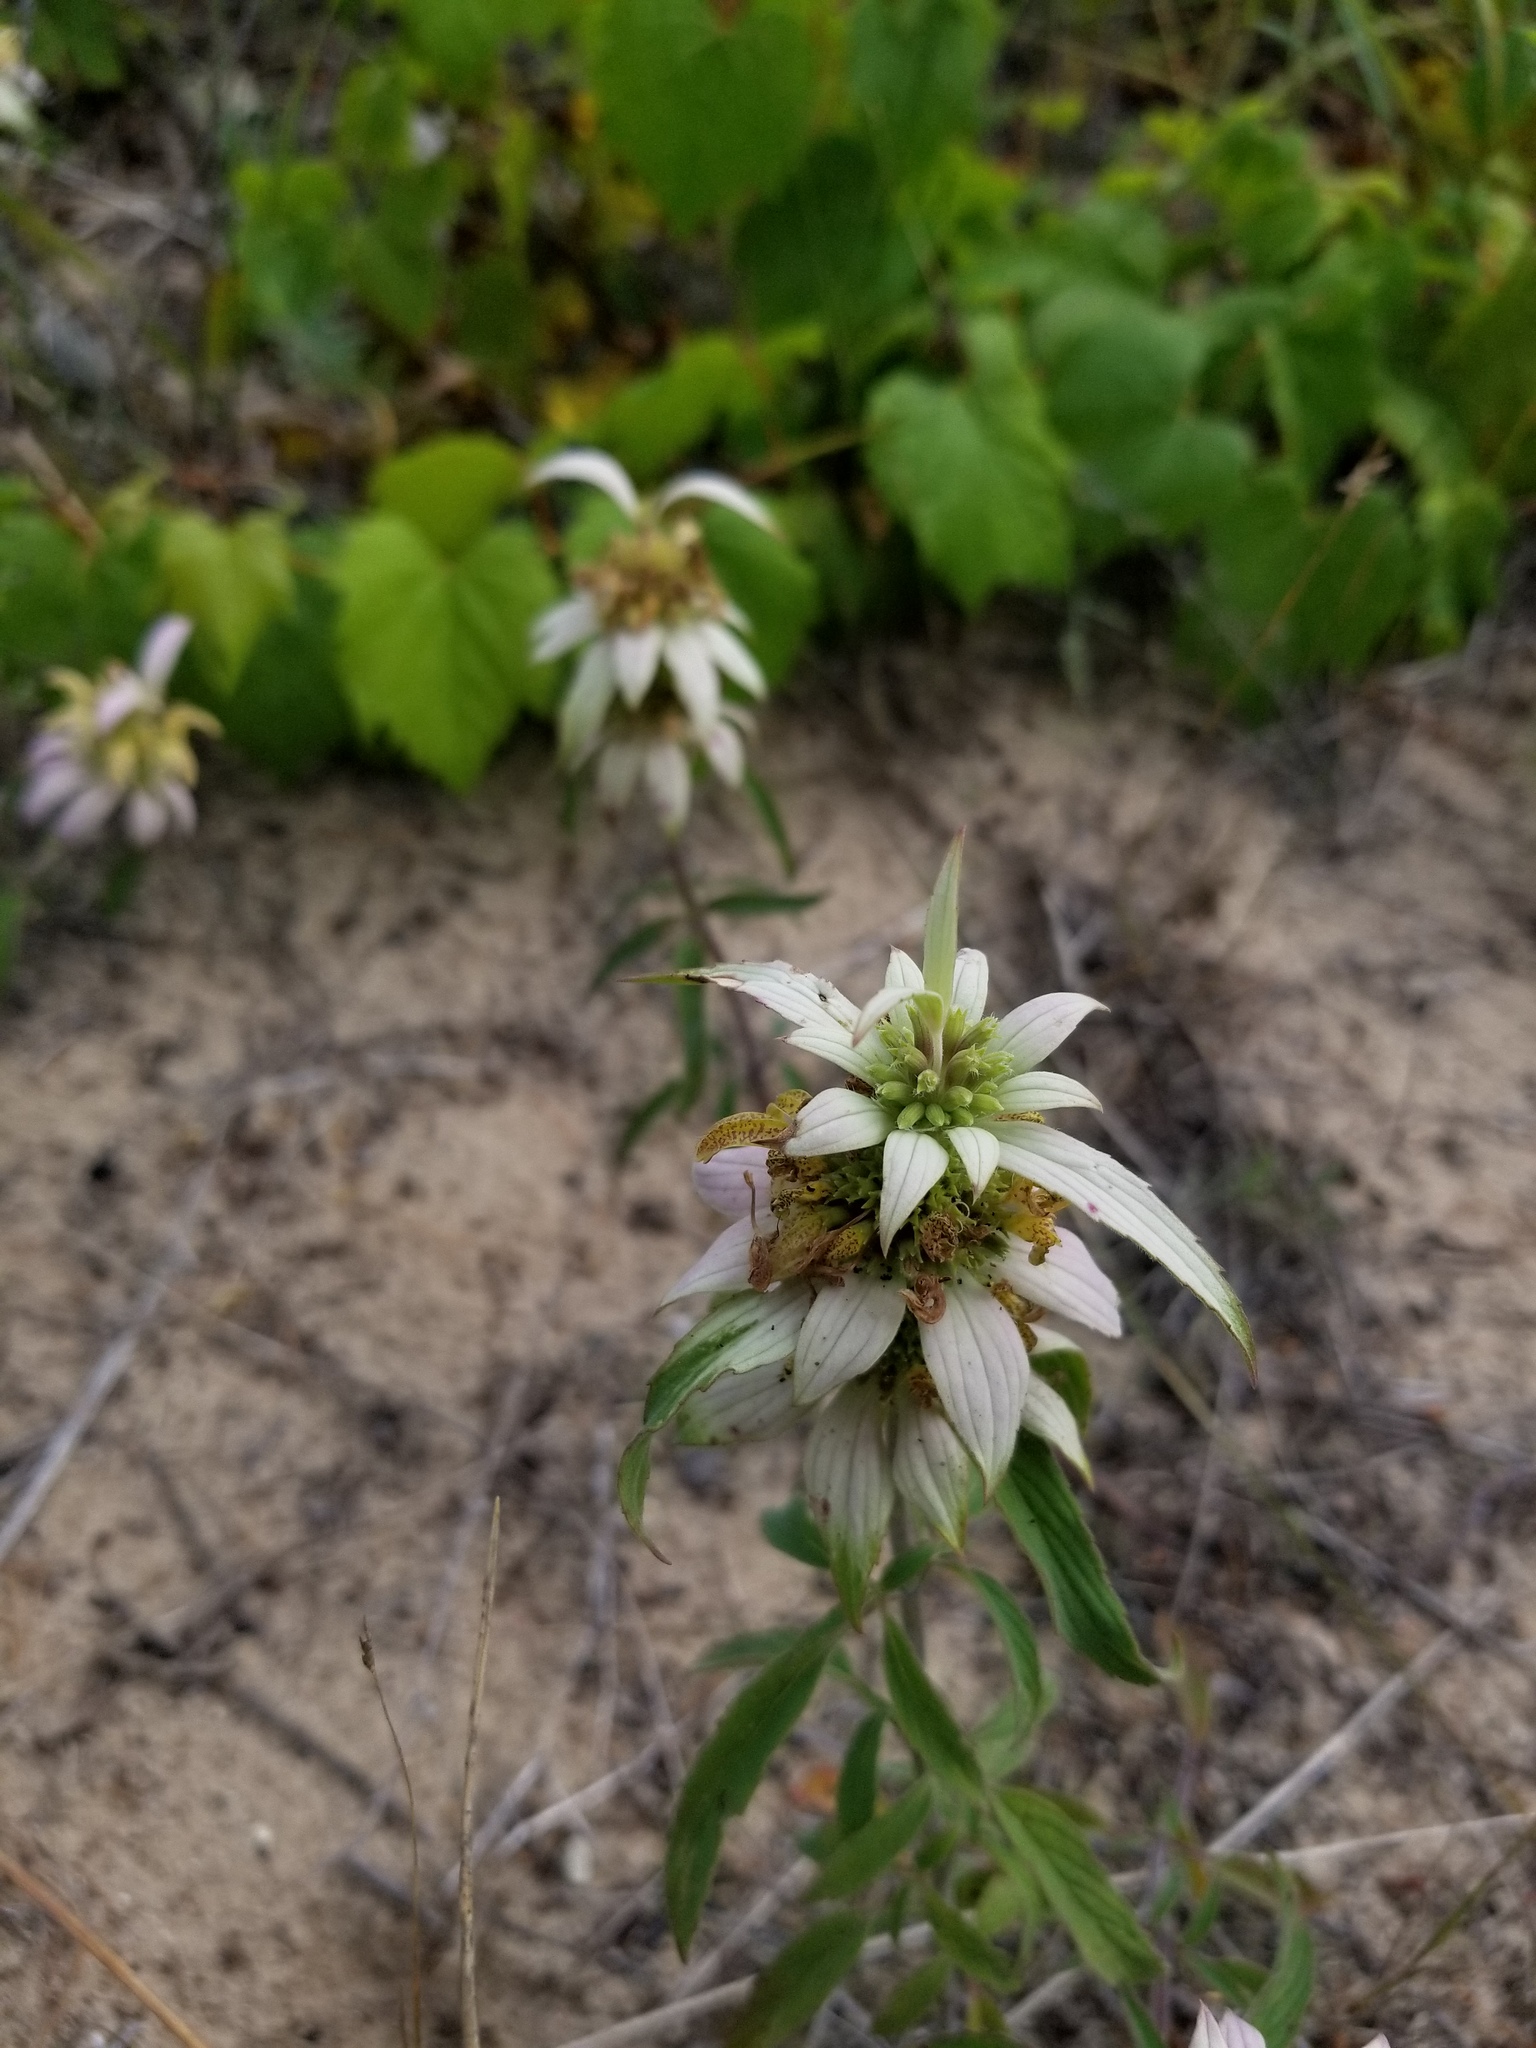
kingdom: Plantae
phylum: Tracheophyta
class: Magnoliopsida
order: Lamiales
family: Lamiaceae
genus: Monarda
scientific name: Monarda punctata
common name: Dotted monarda
